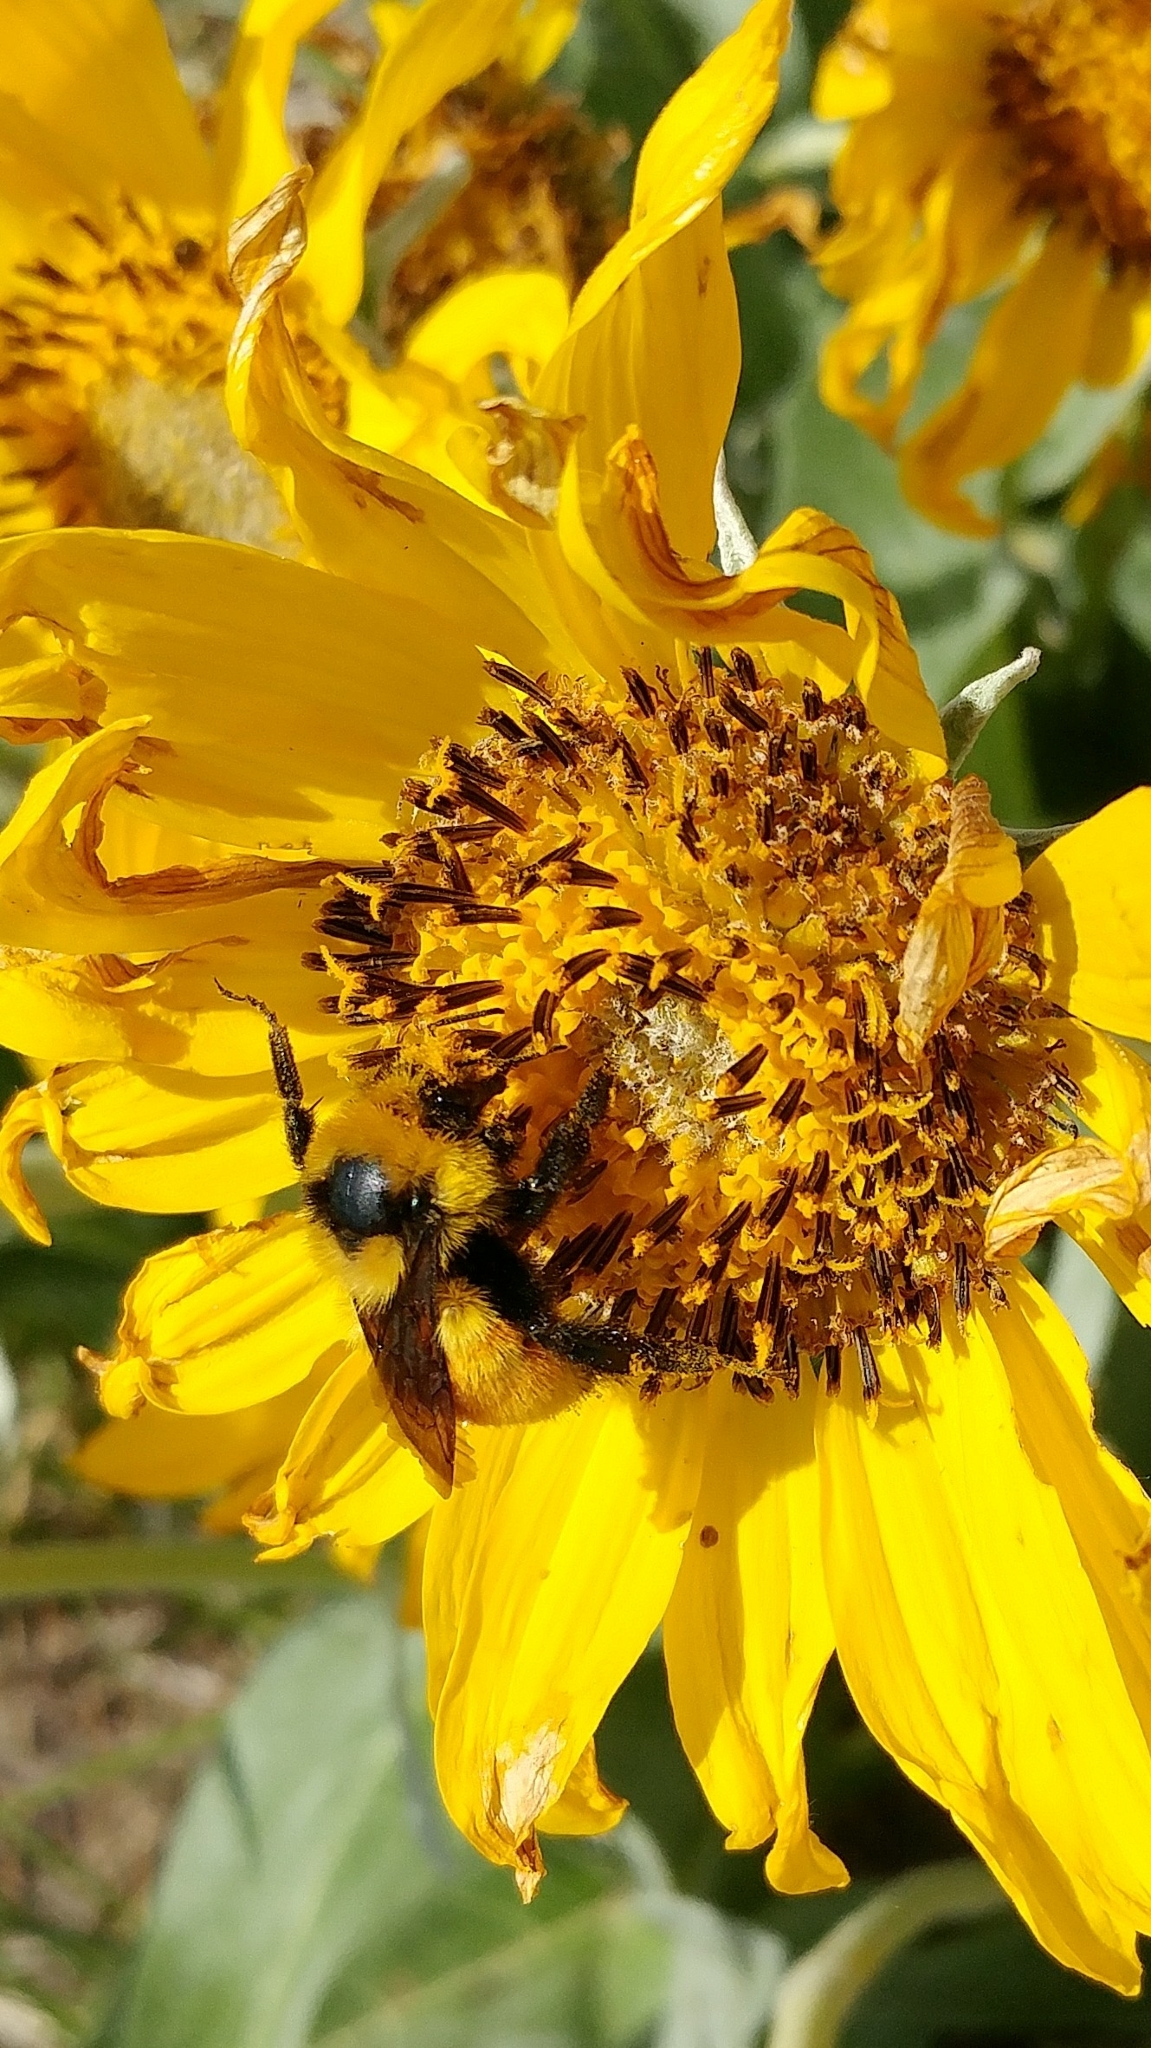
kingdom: Animalia
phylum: Arthropoda
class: Insecta
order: Hymenoptera
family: Apidae
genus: Bombus
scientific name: Bombus huntii
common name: Hunt bumble bee
